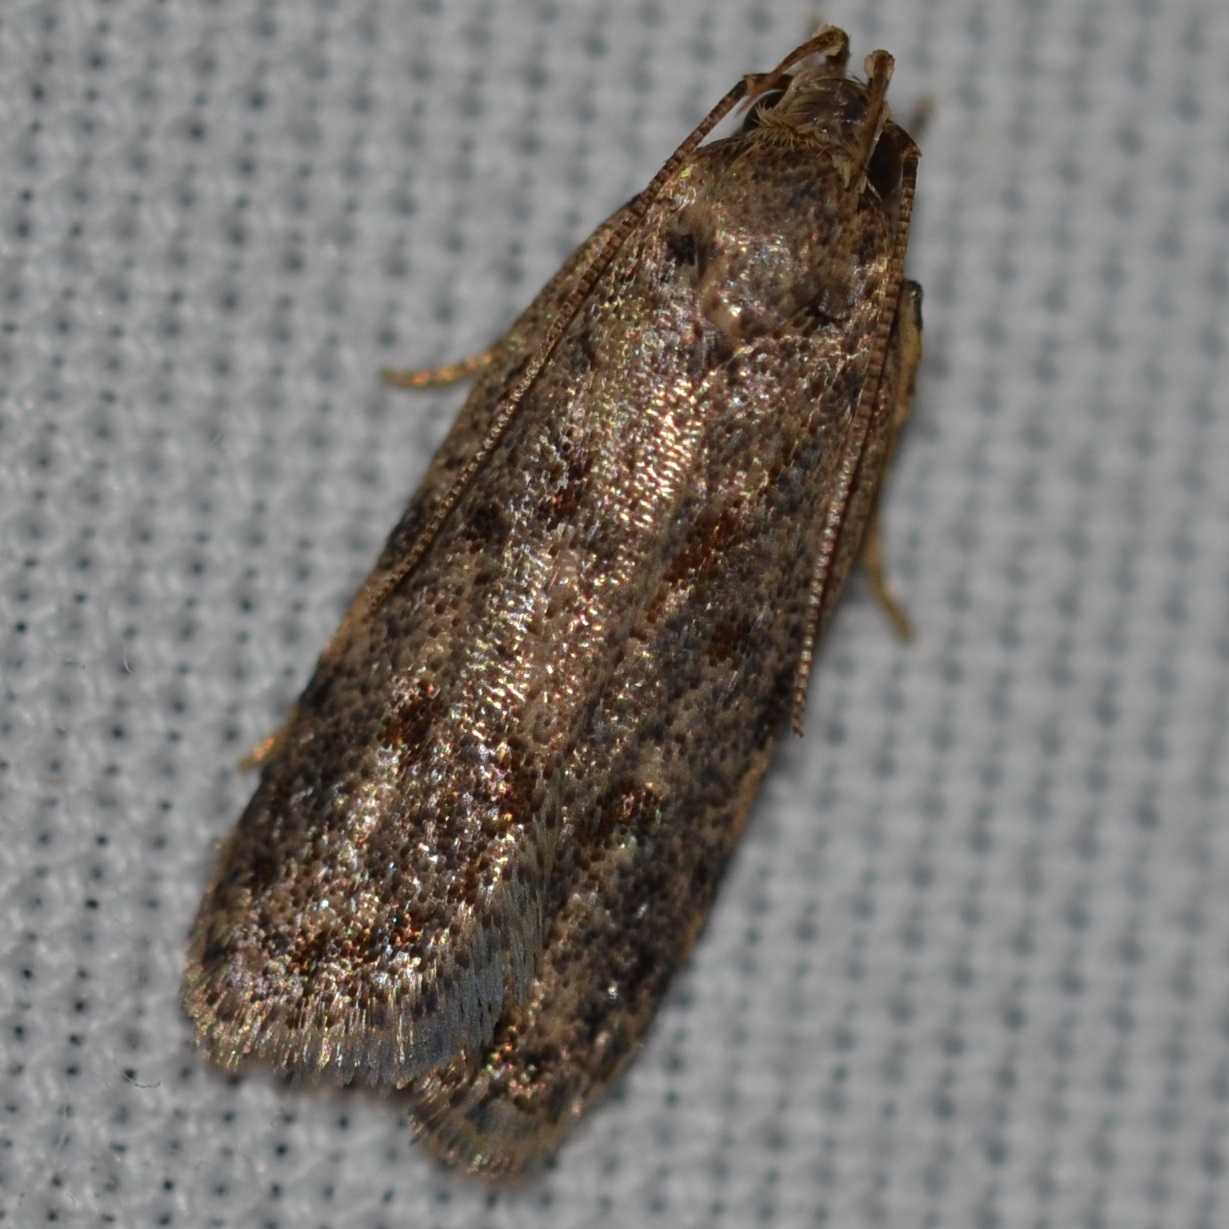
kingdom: Animalia
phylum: Arthropoda
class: Insecta
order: Lepidoptera
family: Autostichidae
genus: Stoeberhinus
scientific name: Stoeberhinus testaceus
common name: Moth
